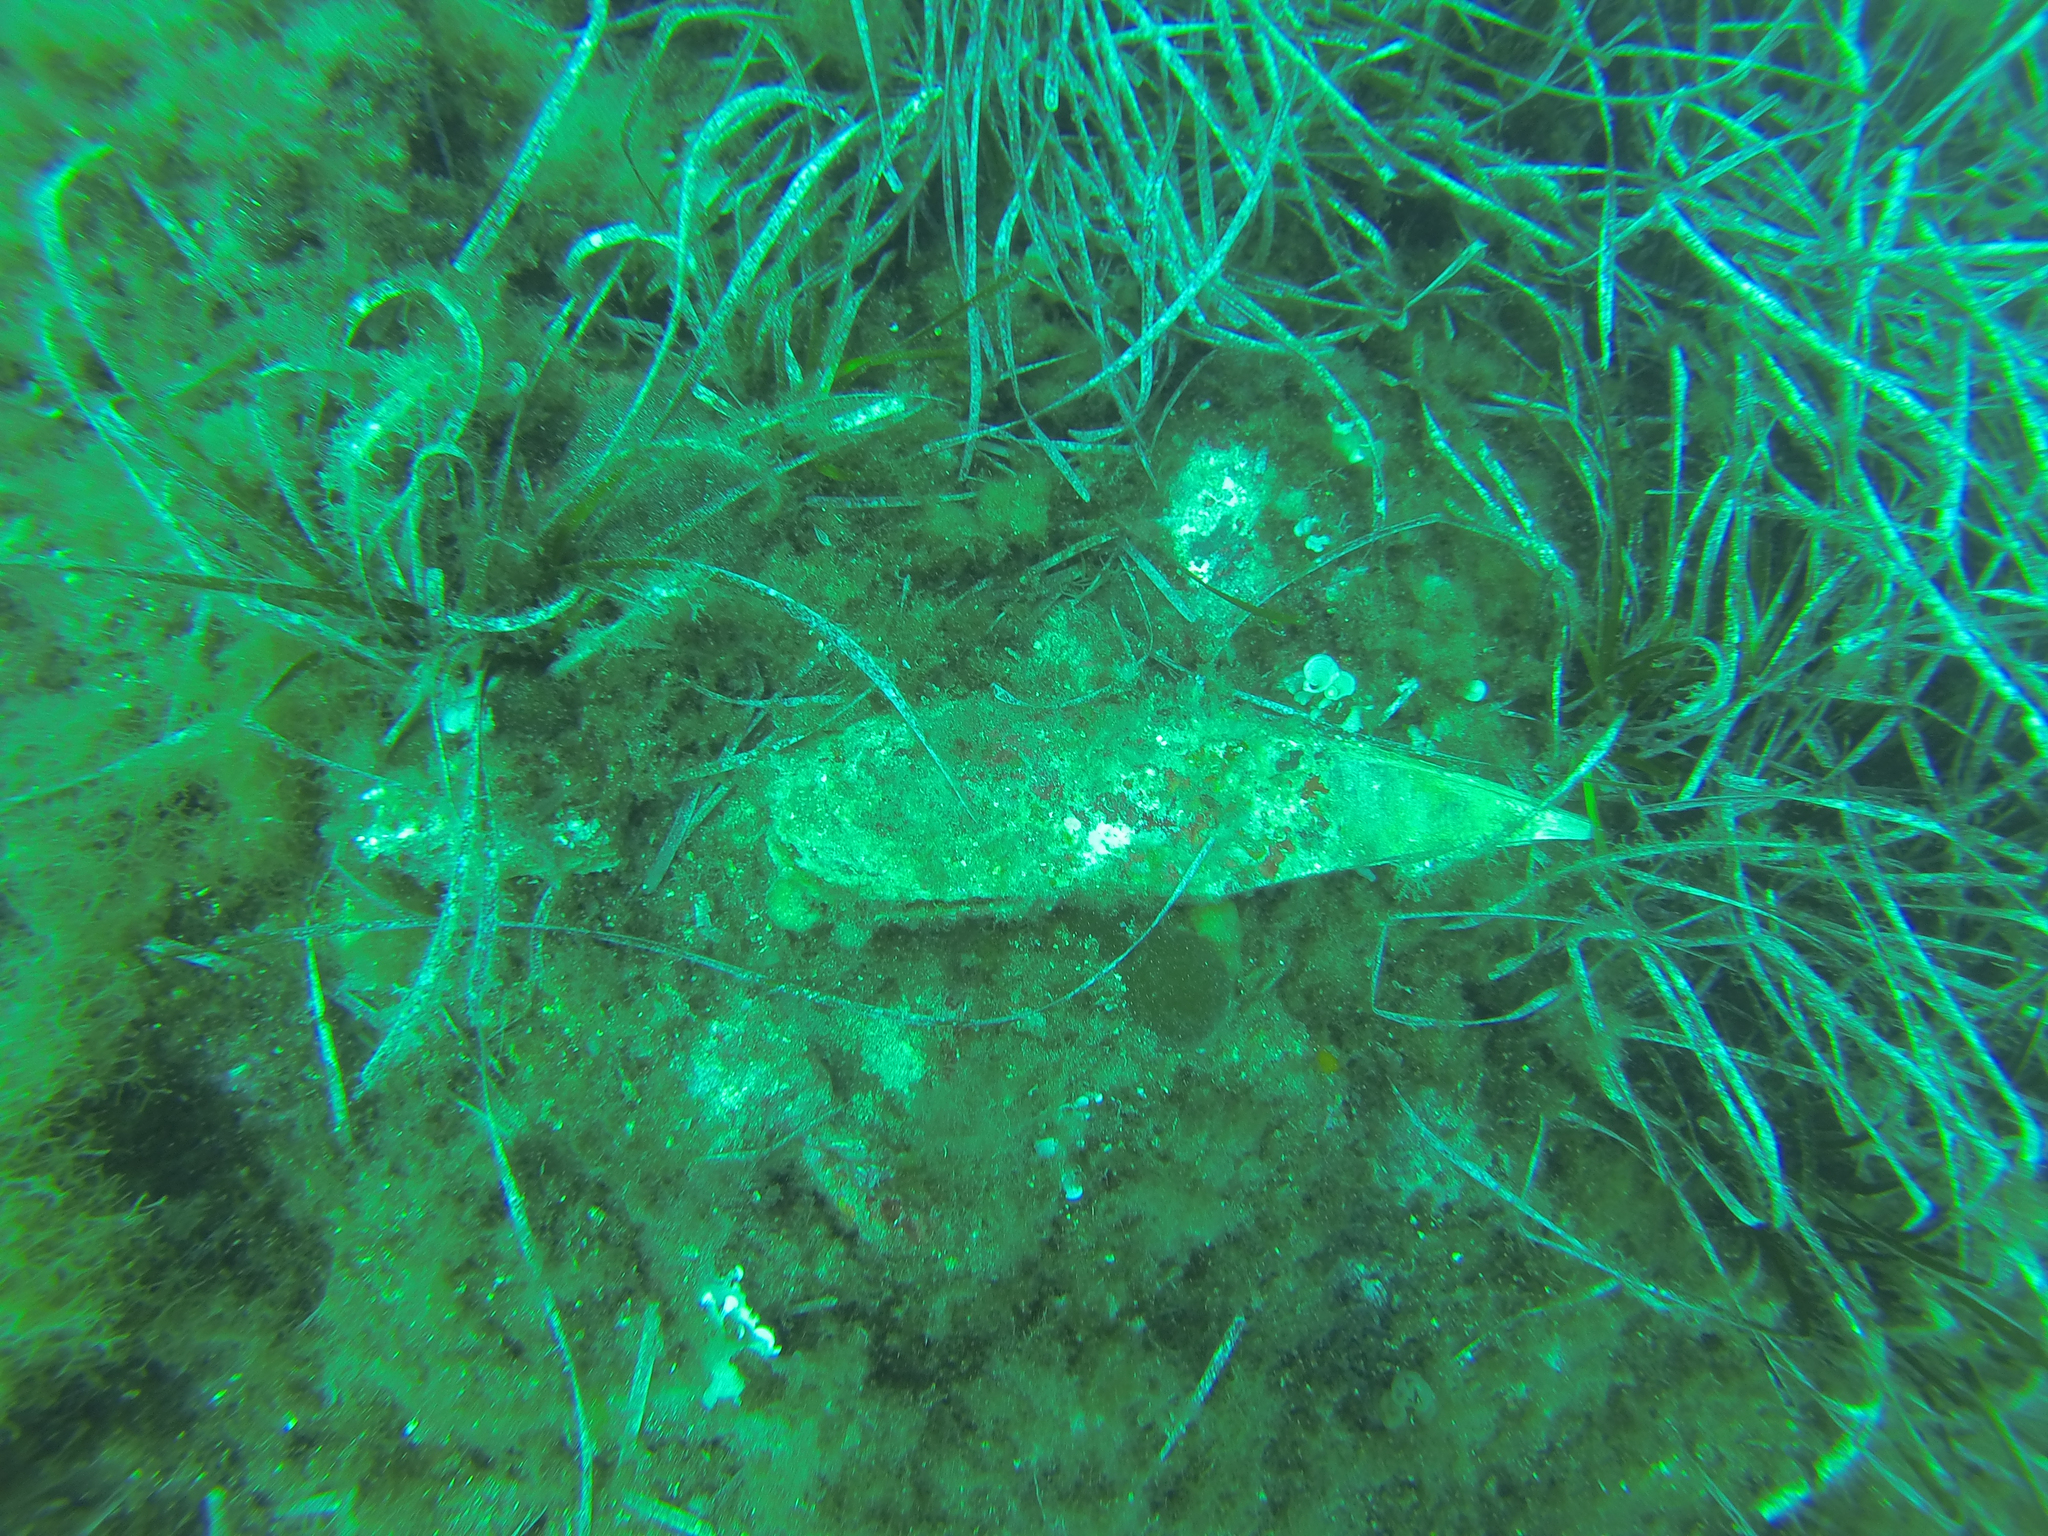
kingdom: Animalia
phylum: Mollusca
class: Bivalvia
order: Ostreida
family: Pinnidae
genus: Pinna
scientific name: Pinna nobilis
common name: Fan mussel
